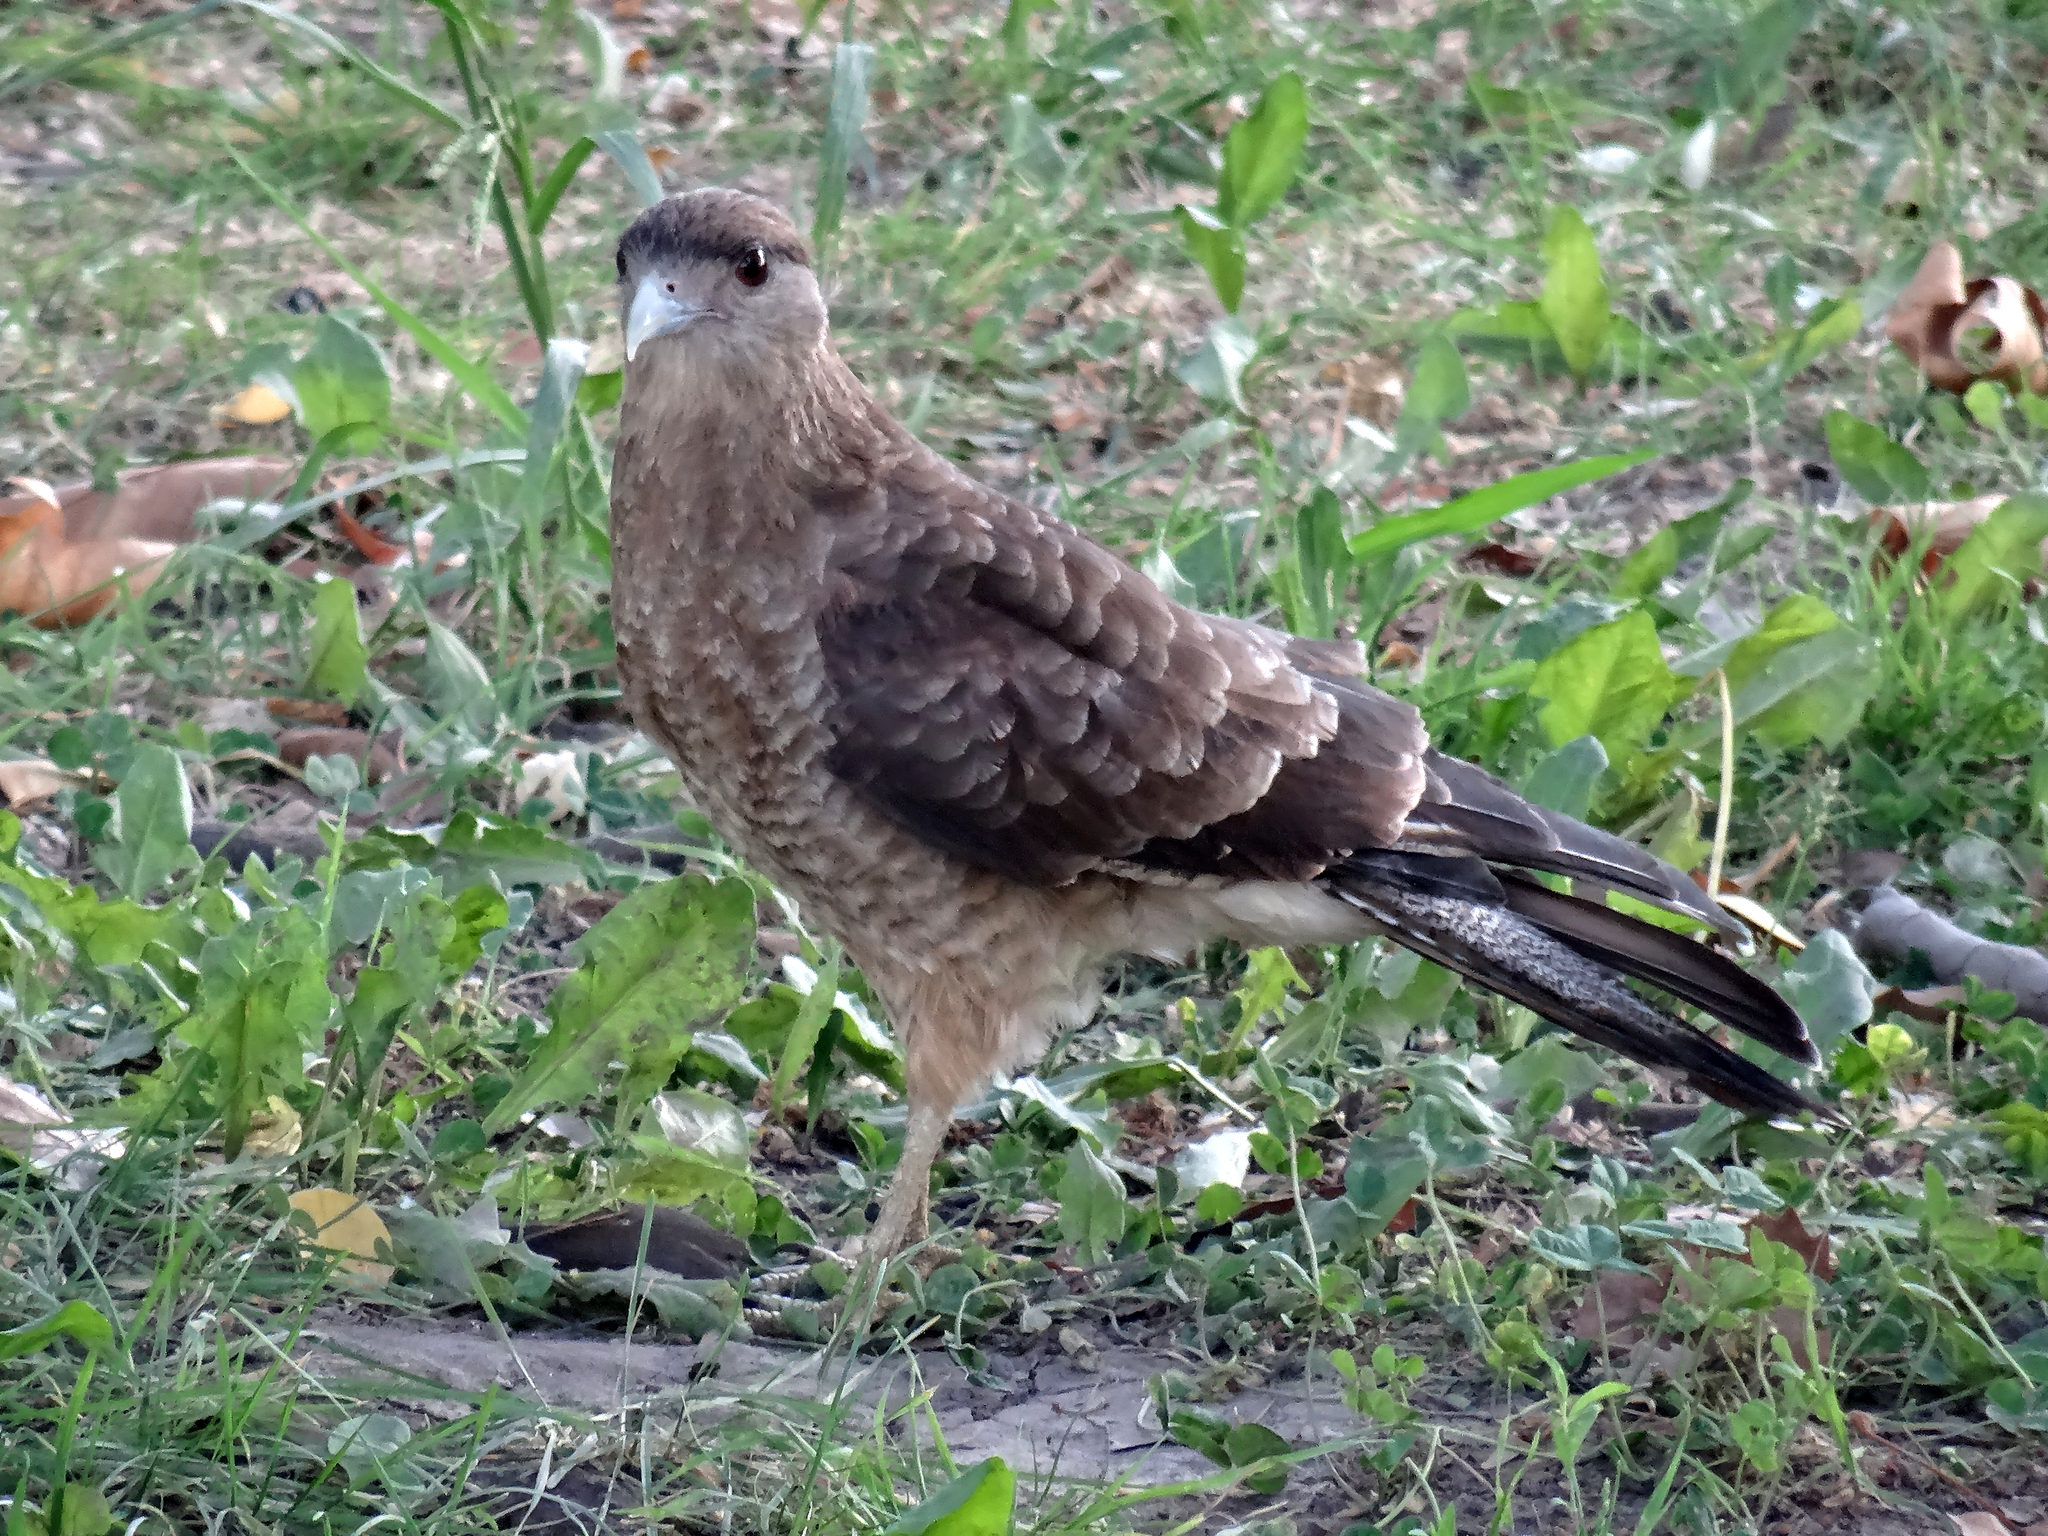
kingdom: Animalia
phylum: Chordata
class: Aves
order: Falconiformes
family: Falconidae
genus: Daptrius
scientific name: Daptrius
